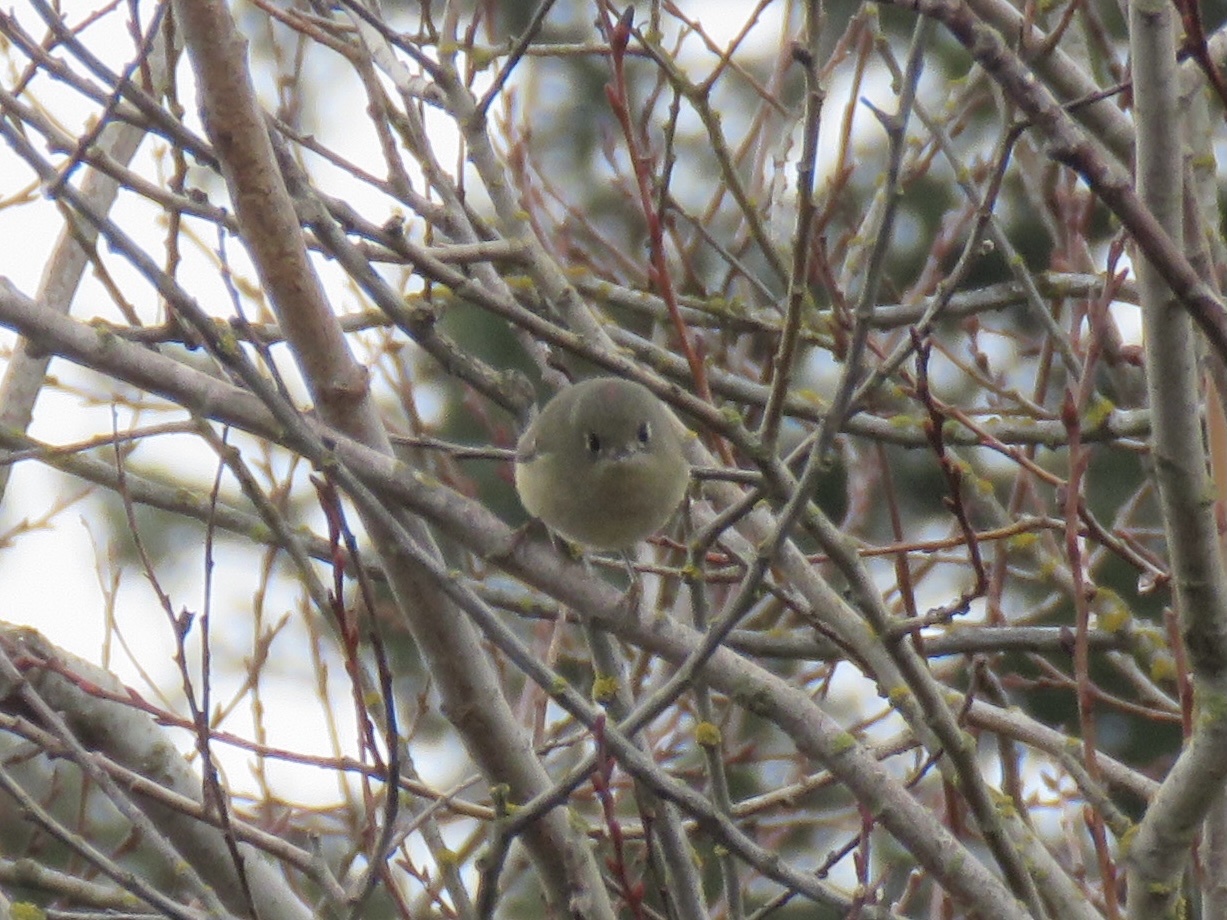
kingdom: Animalia
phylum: Chordata
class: Aves
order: Passeriformes
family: Regulidae
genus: Regulus
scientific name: Regulus calendula
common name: Ruby-crowned kinglet
